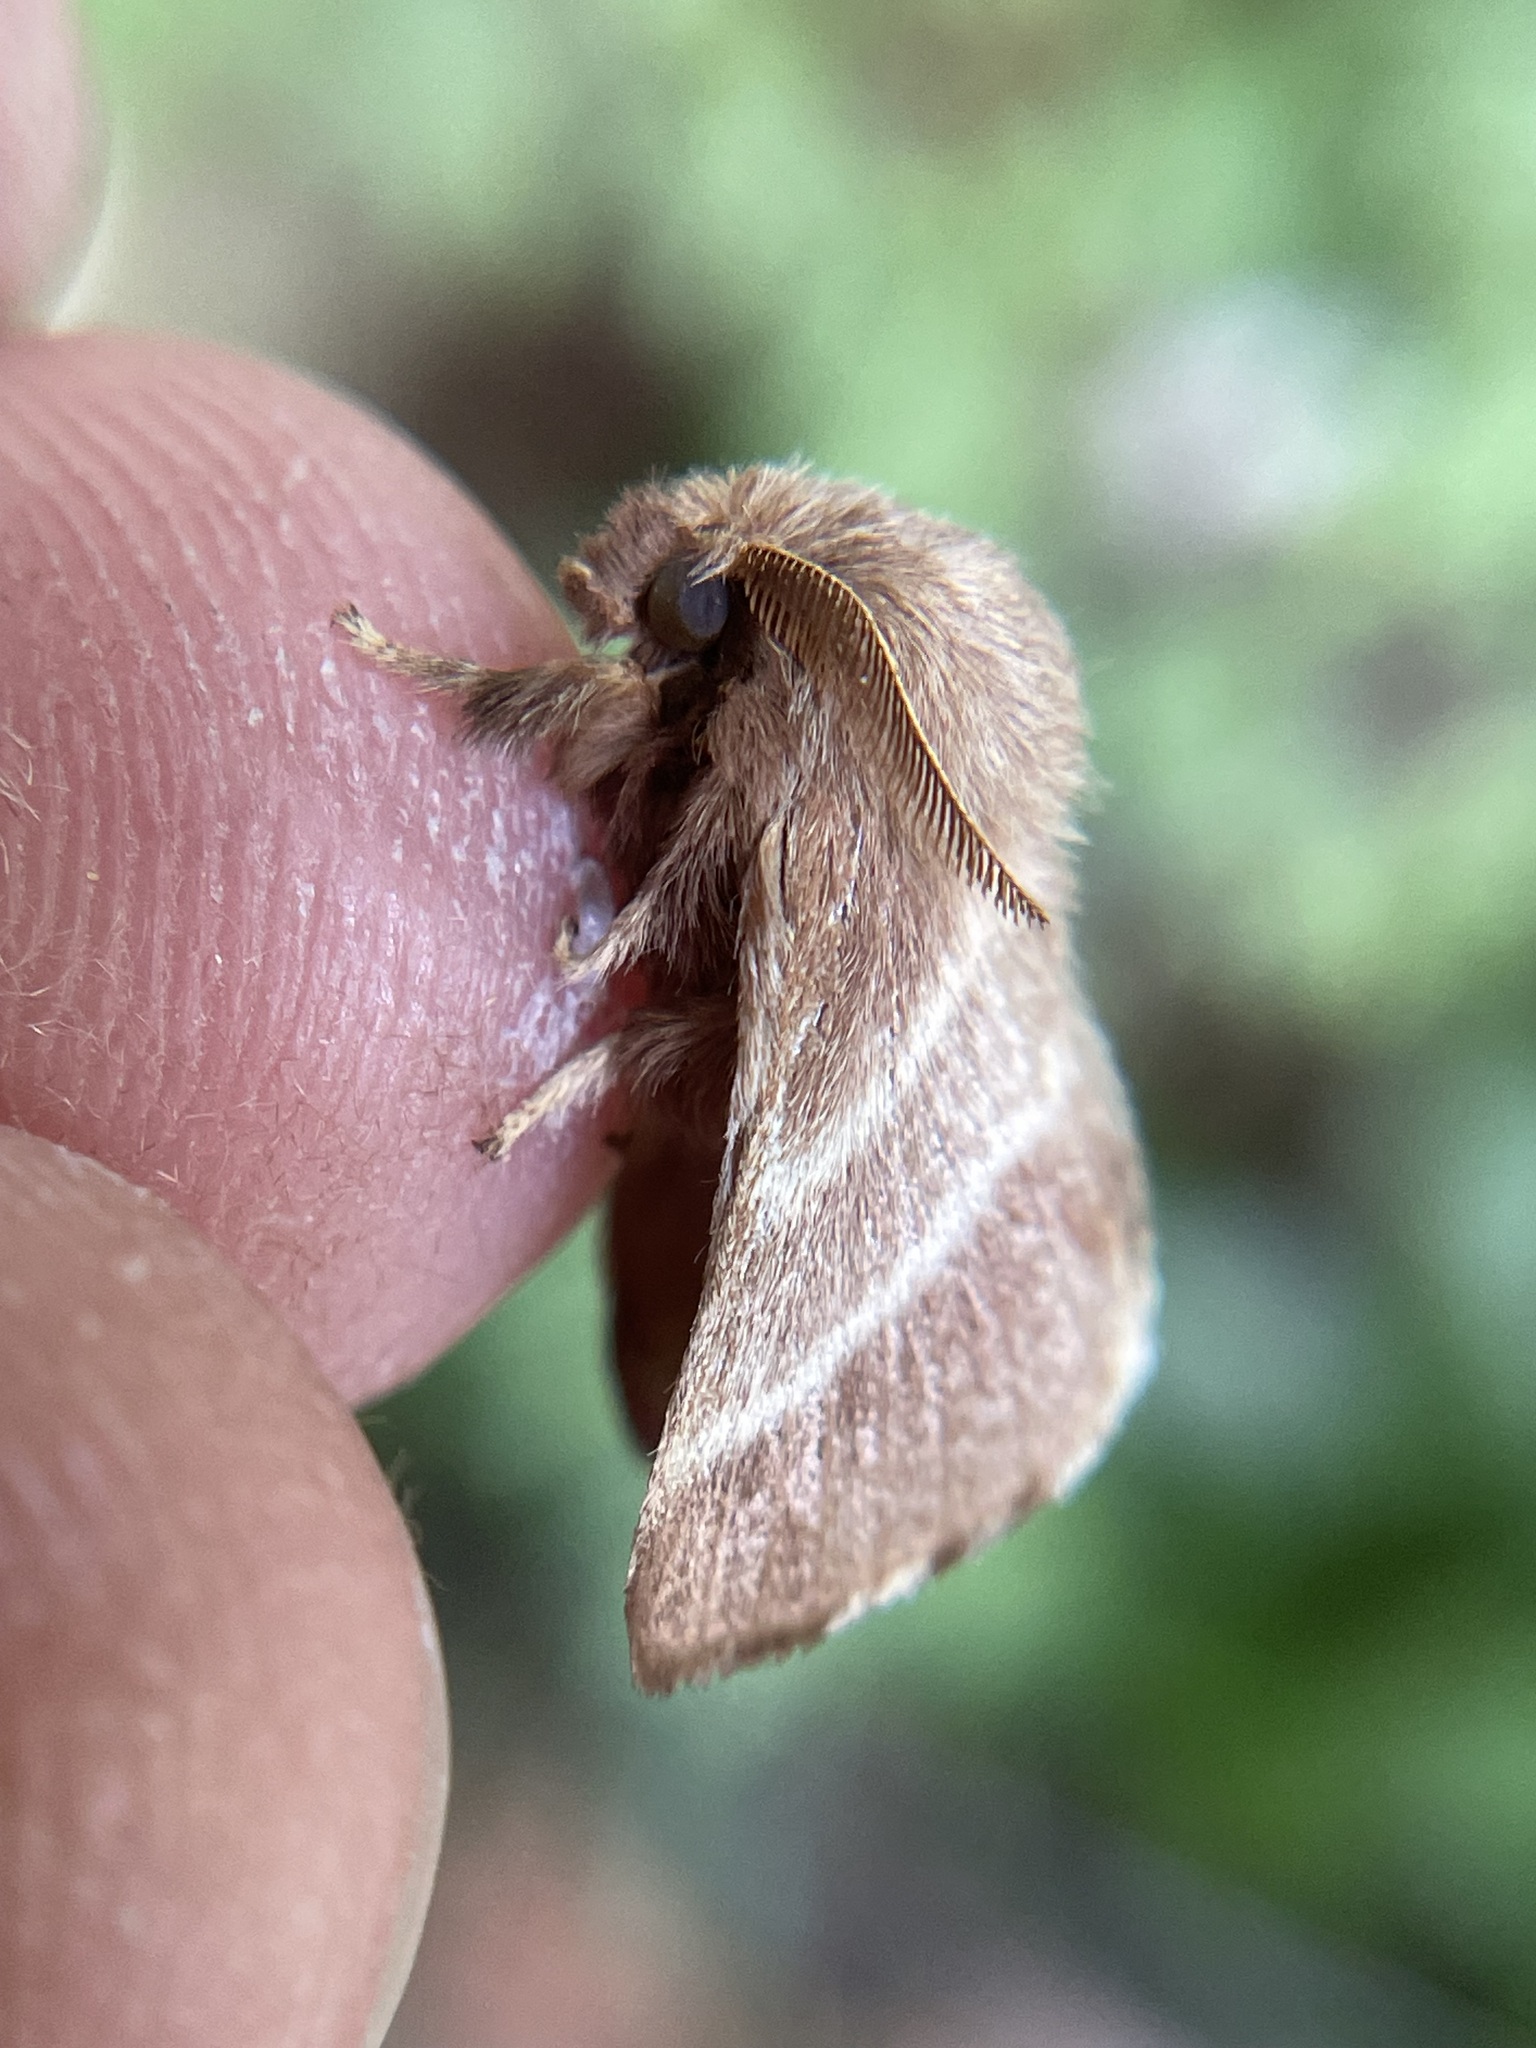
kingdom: Animalia
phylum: Arthropoda
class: Insecta
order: Lepidoptera
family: Lasiocampidae
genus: Malacosoma
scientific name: Malacosoma americana
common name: Eastern tent caterpillar moth
